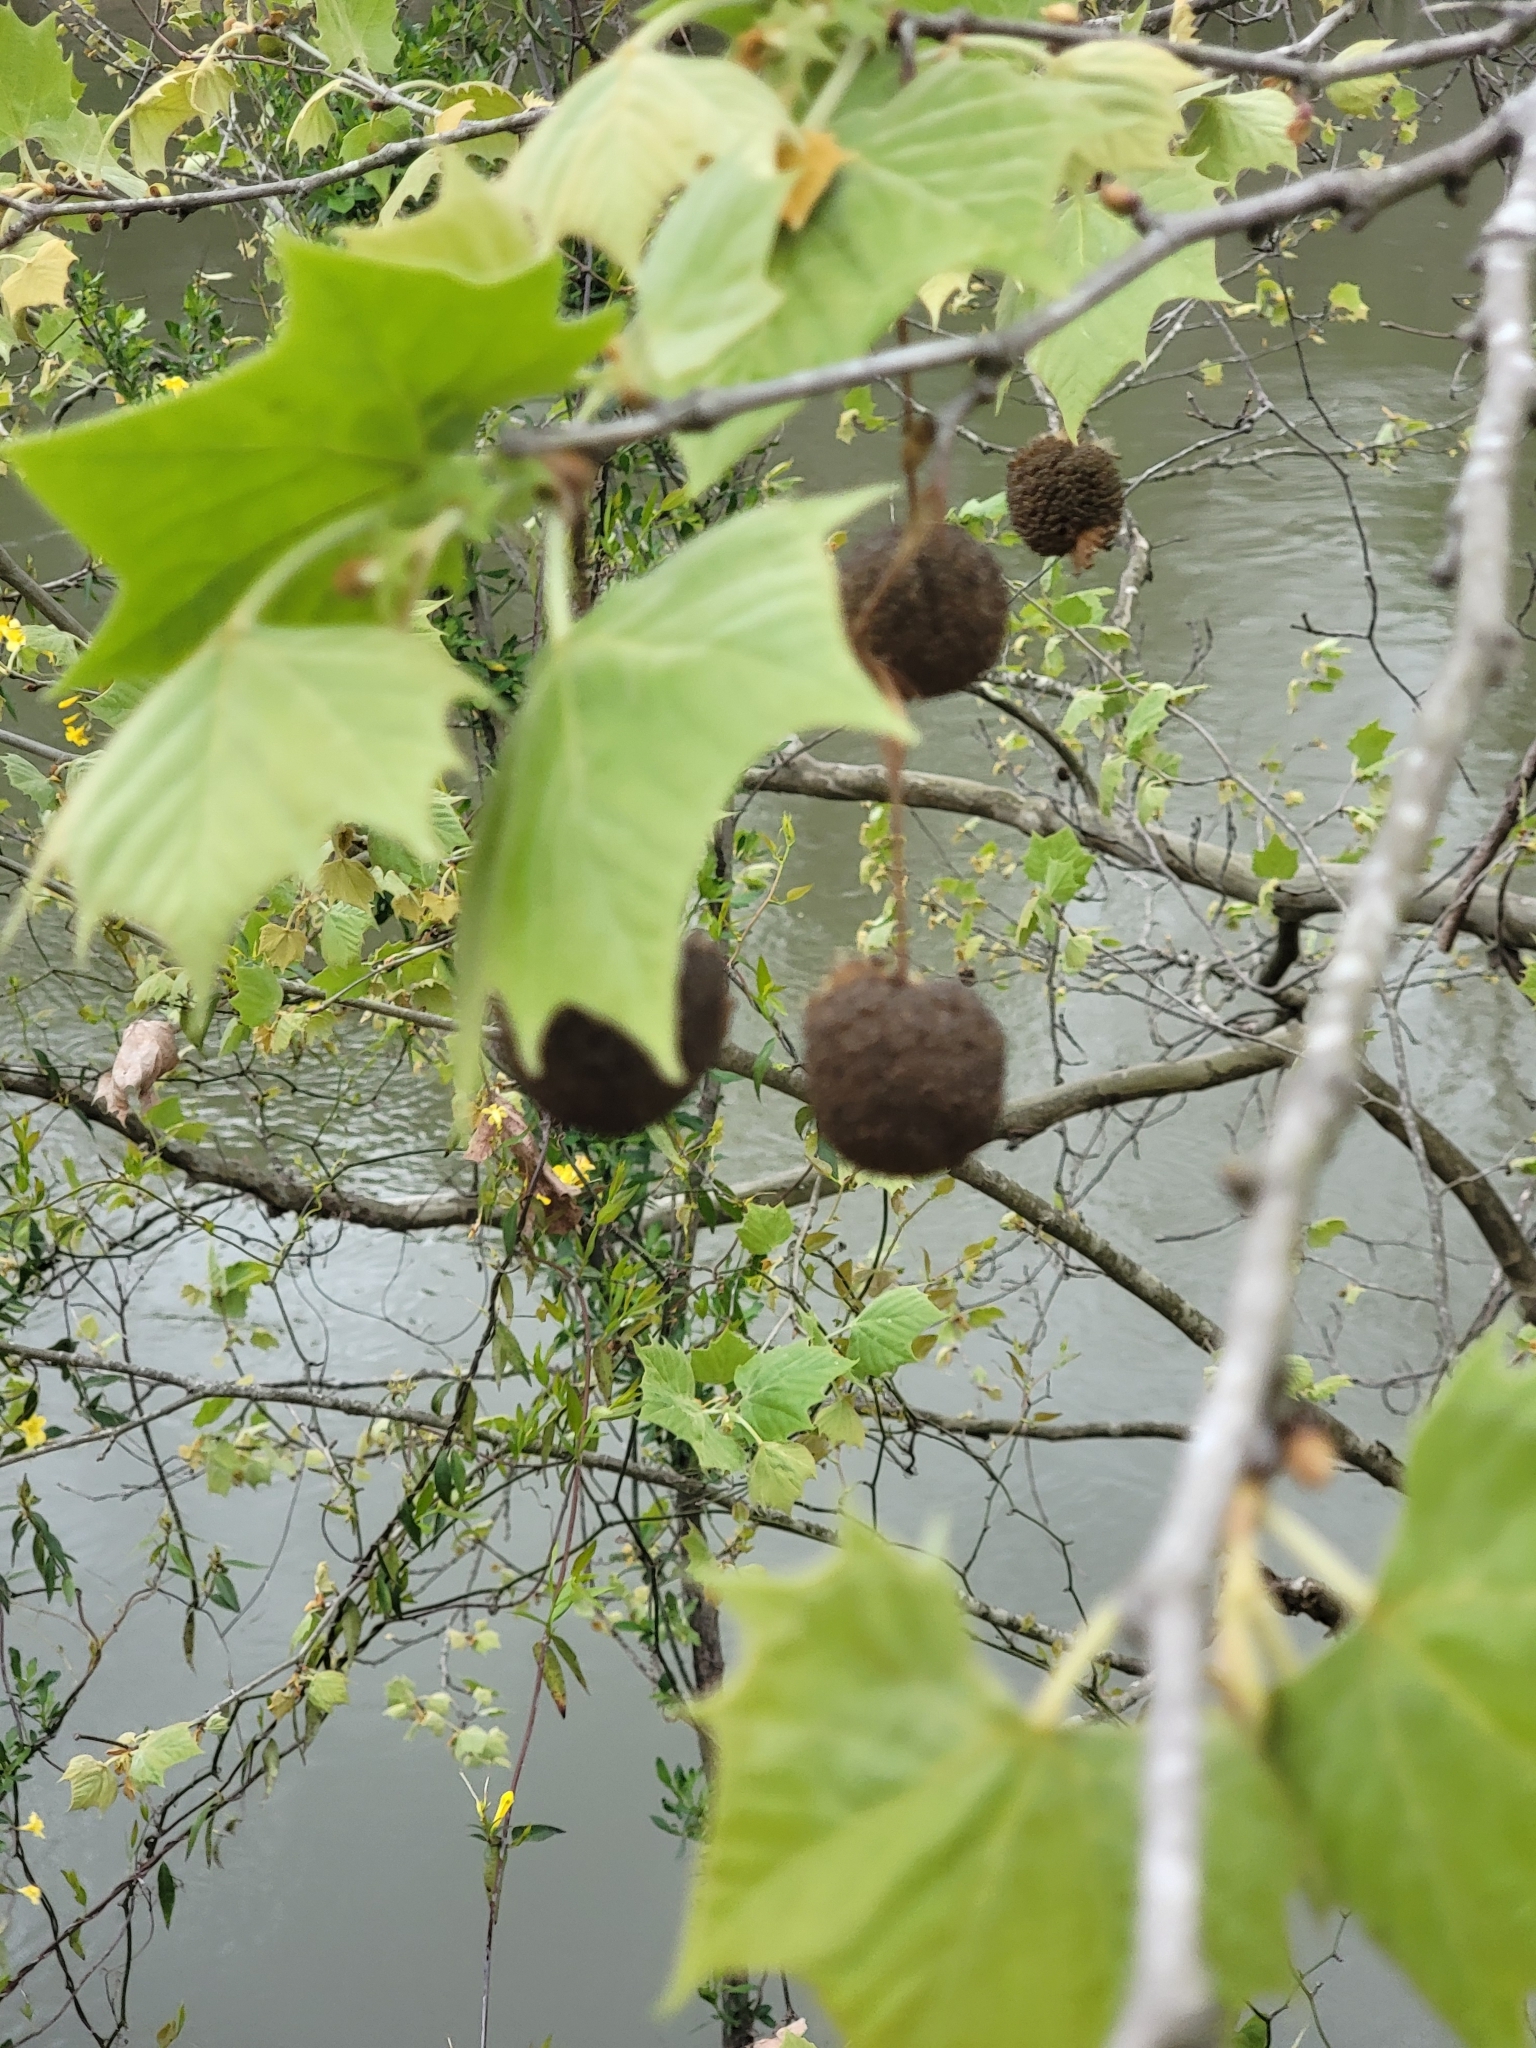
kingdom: Plantae
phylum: Tracheophyta
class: Magnoliopsida
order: Proteales
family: Platanaceae
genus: Platanus
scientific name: Platanus occidentalis
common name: American sycamore
